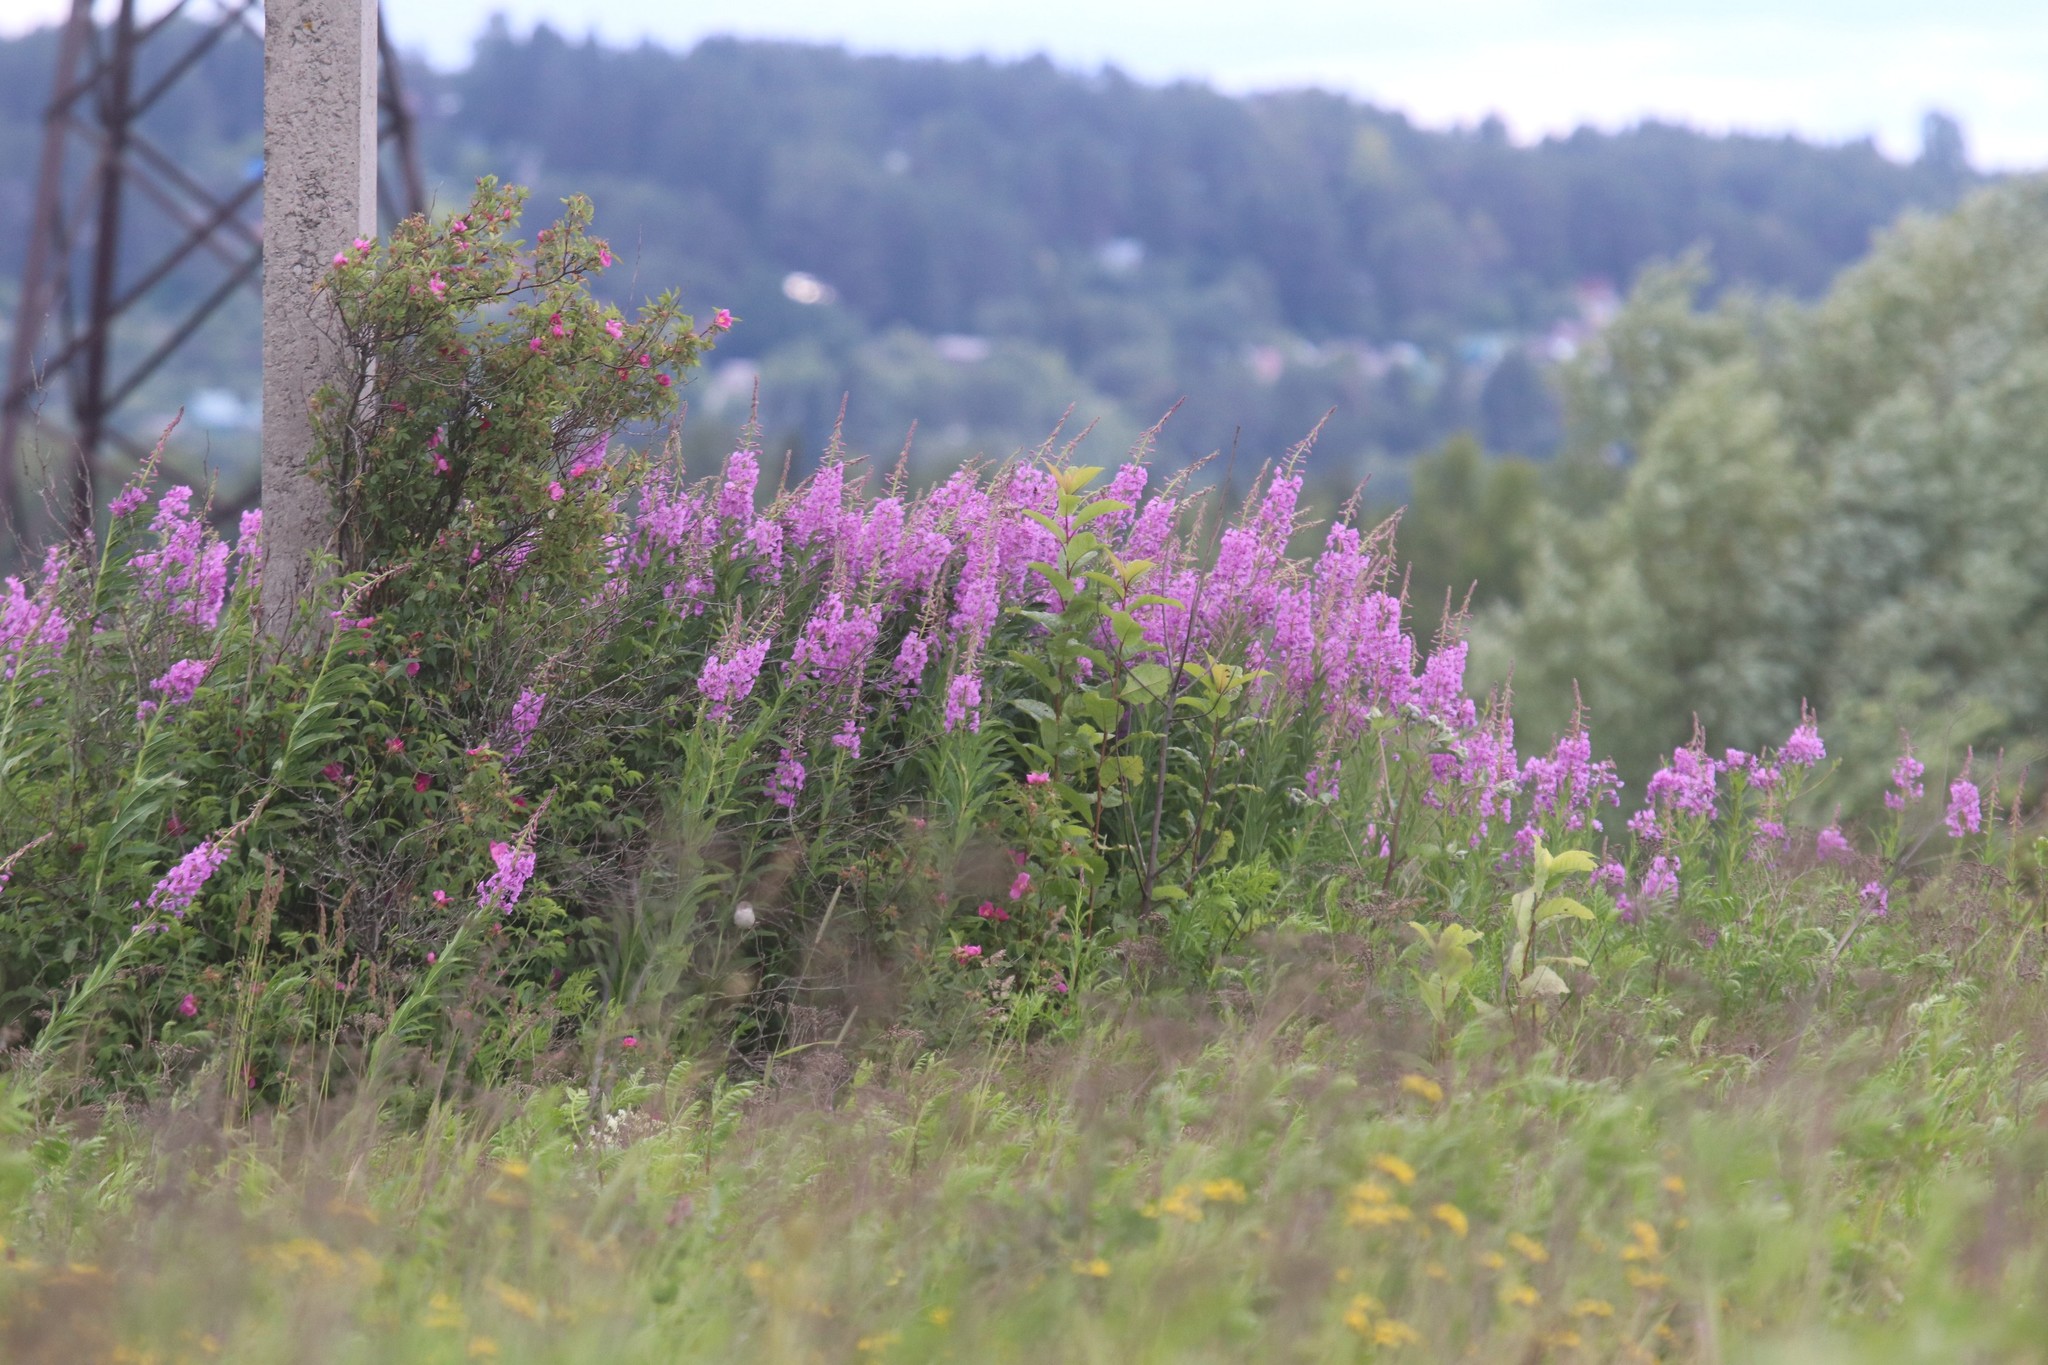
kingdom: Plantae
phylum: Tracheophyta
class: Magnoliopsida
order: Myrtales
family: Onagraceae
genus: Chamaenerion
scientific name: Chamaenerion angustifolium
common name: Fireweed
